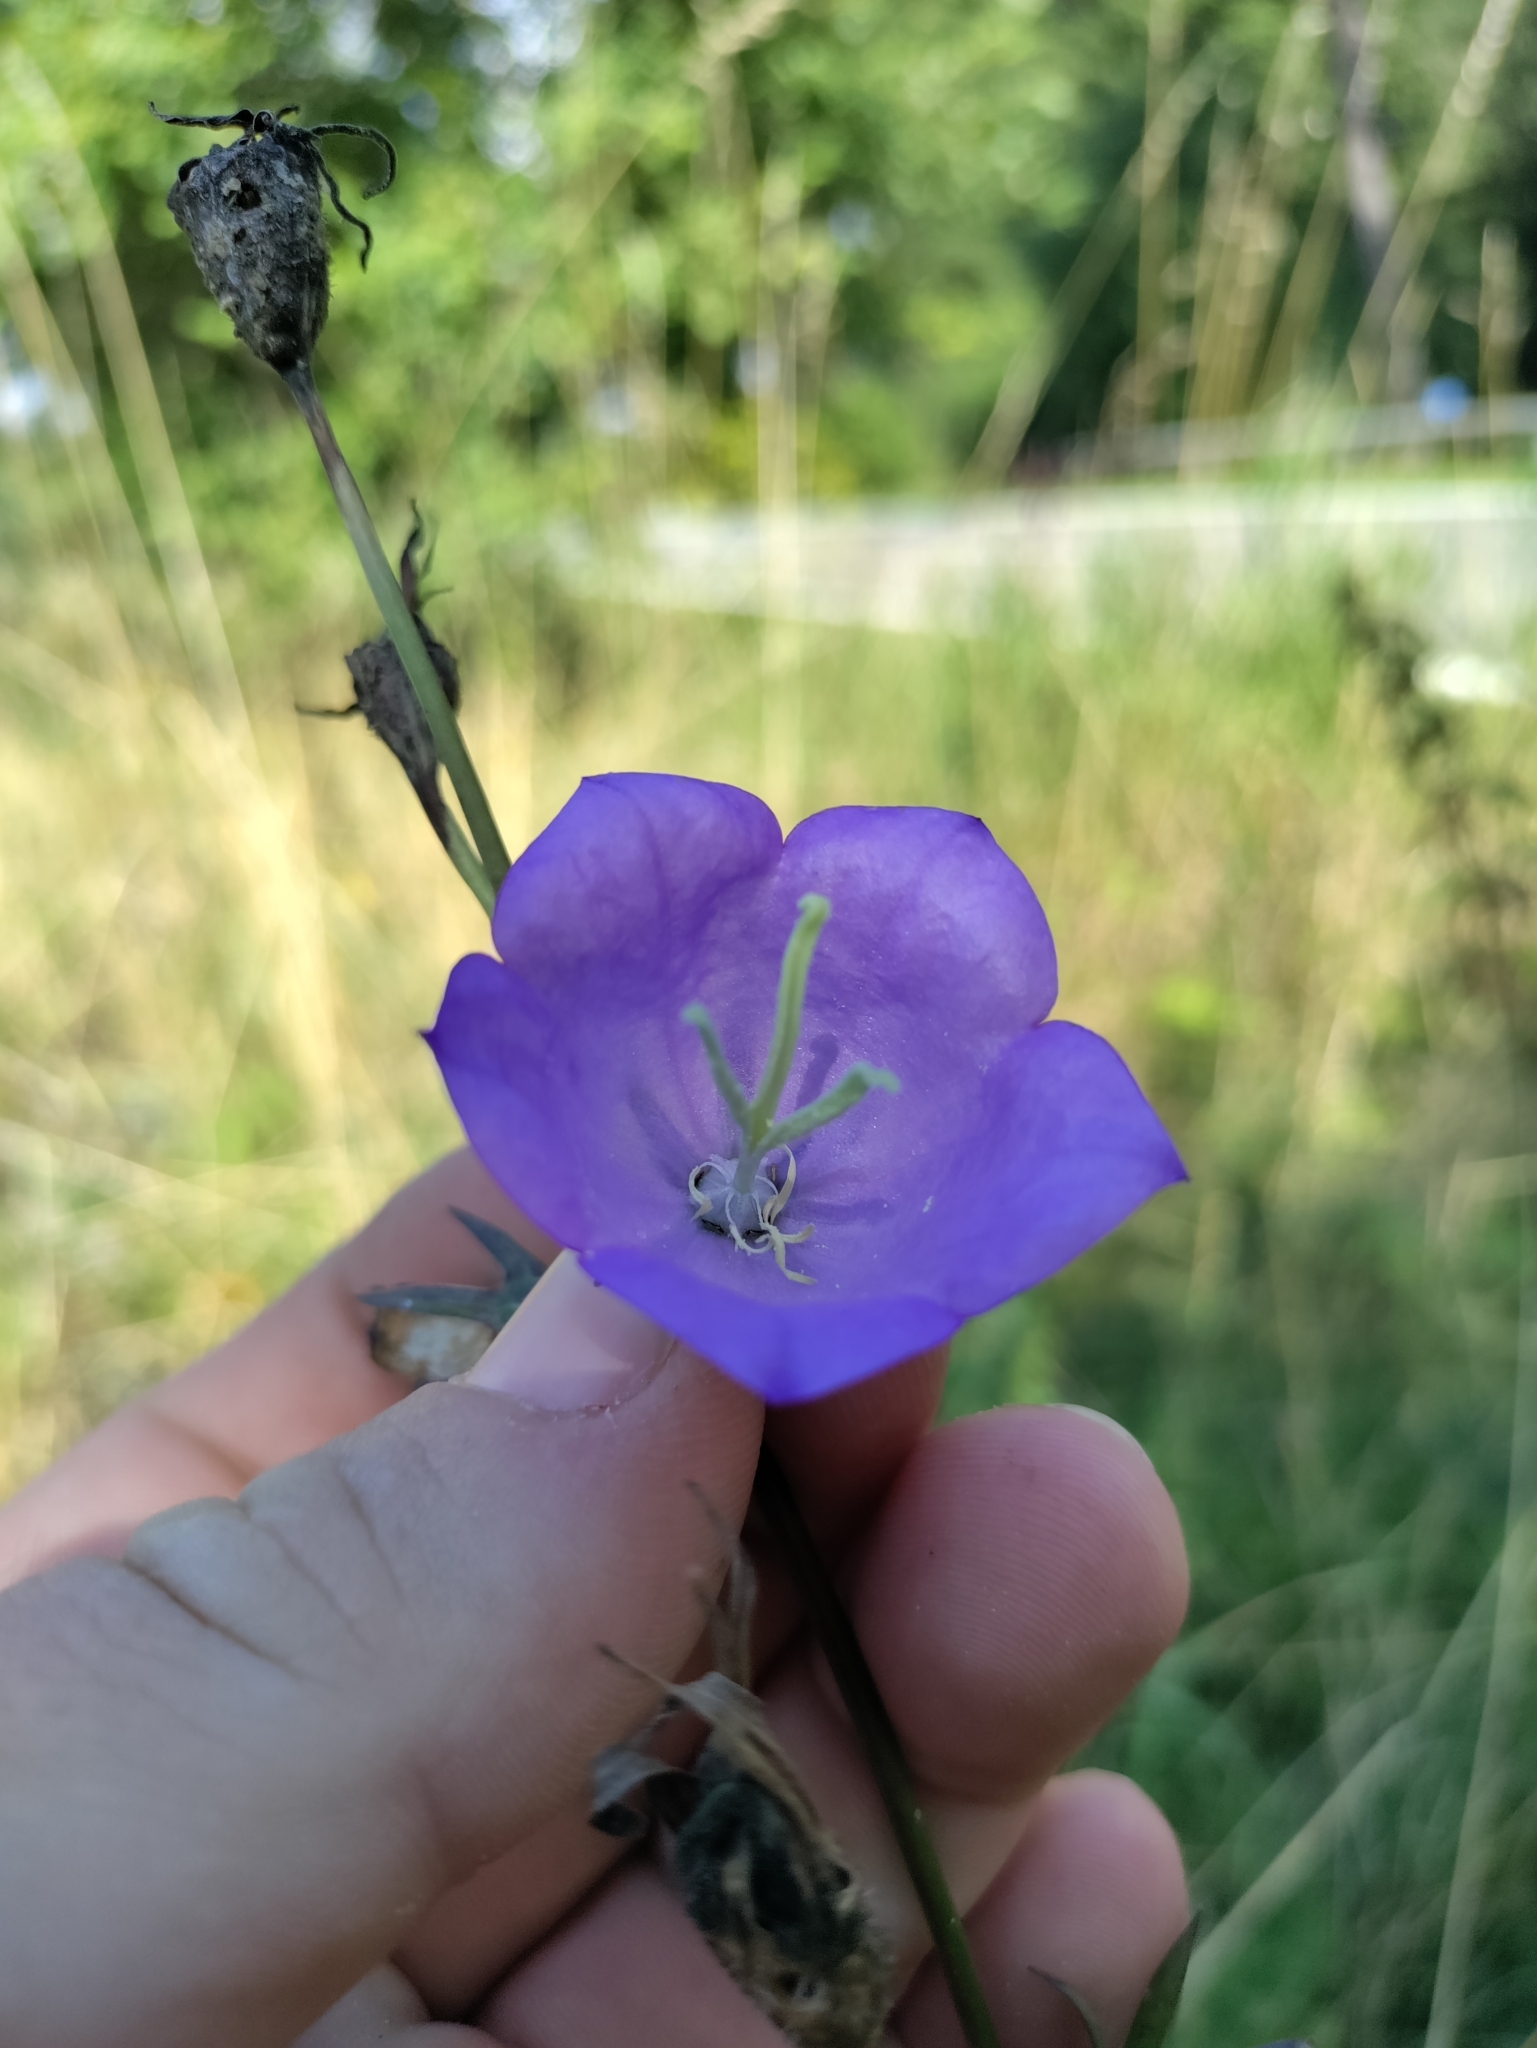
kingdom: Plantae
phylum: Tracheophyta
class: Magnoliopsida
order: Asterales
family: Campanulaceae
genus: Campanula
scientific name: Campanula persicifolia
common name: Peach-leaved bellflower
